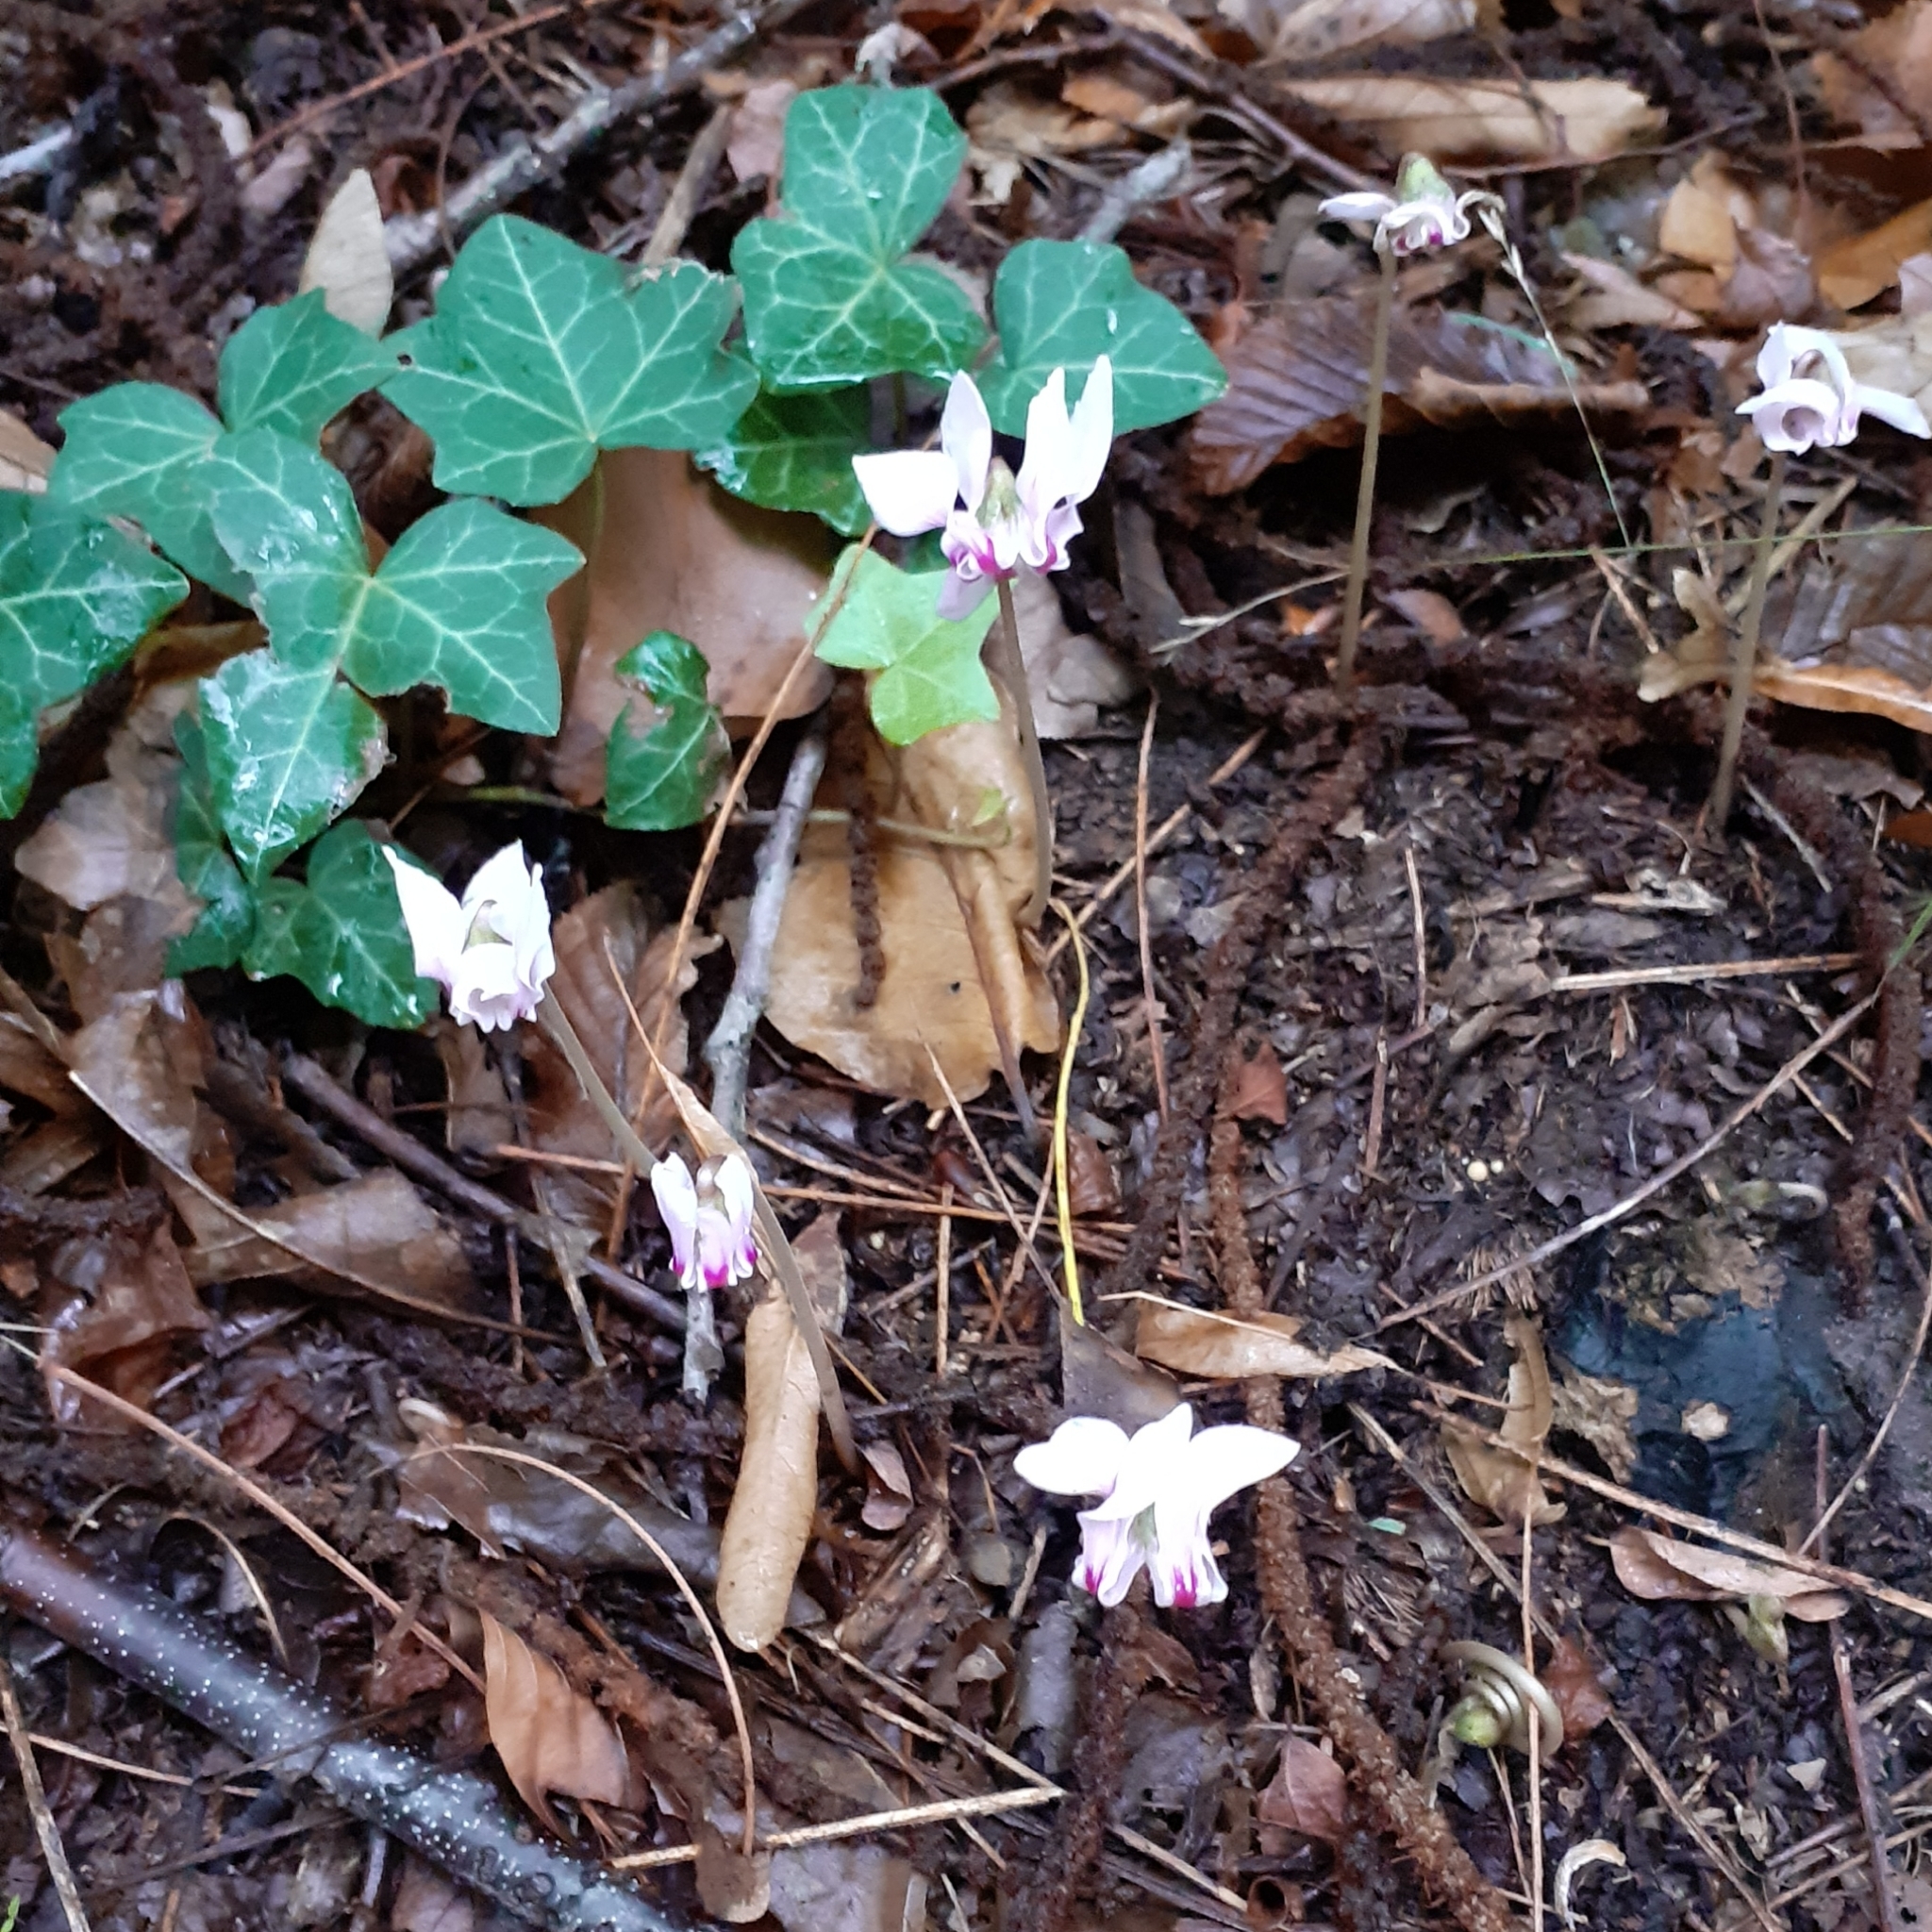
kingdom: Plantae
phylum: Tracheophyta
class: Magnoliopsida
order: Ericales
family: Primulaceae
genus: Cyclamen
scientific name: Cyclamen hederifolium
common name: Sowbread
